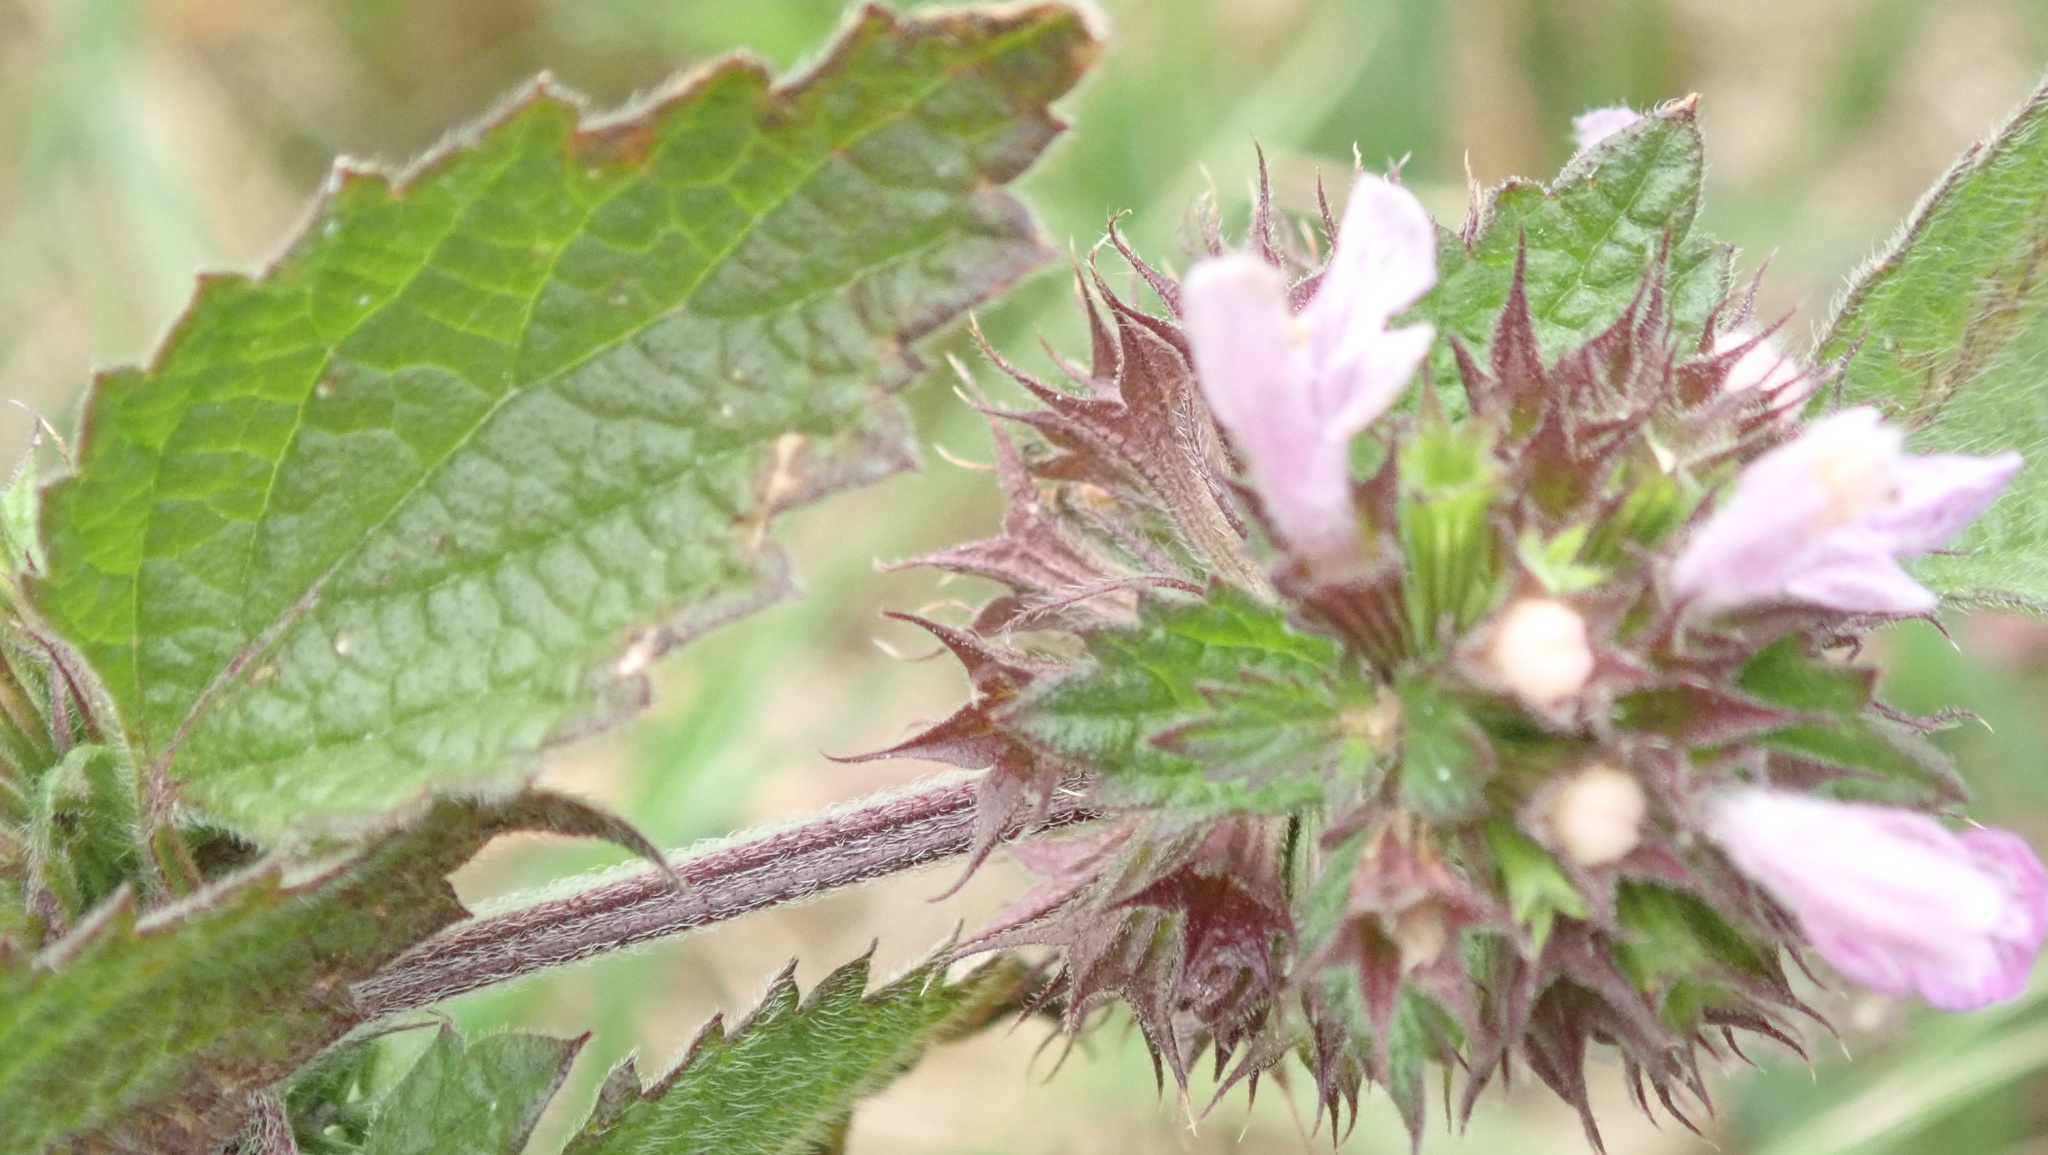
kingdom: Plantae
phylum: Tracheophyta
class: Magnoliopsida
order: Lamiales
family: Lamiaceae
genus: Ballota
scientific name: Ballota nigra
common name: Black horehound
